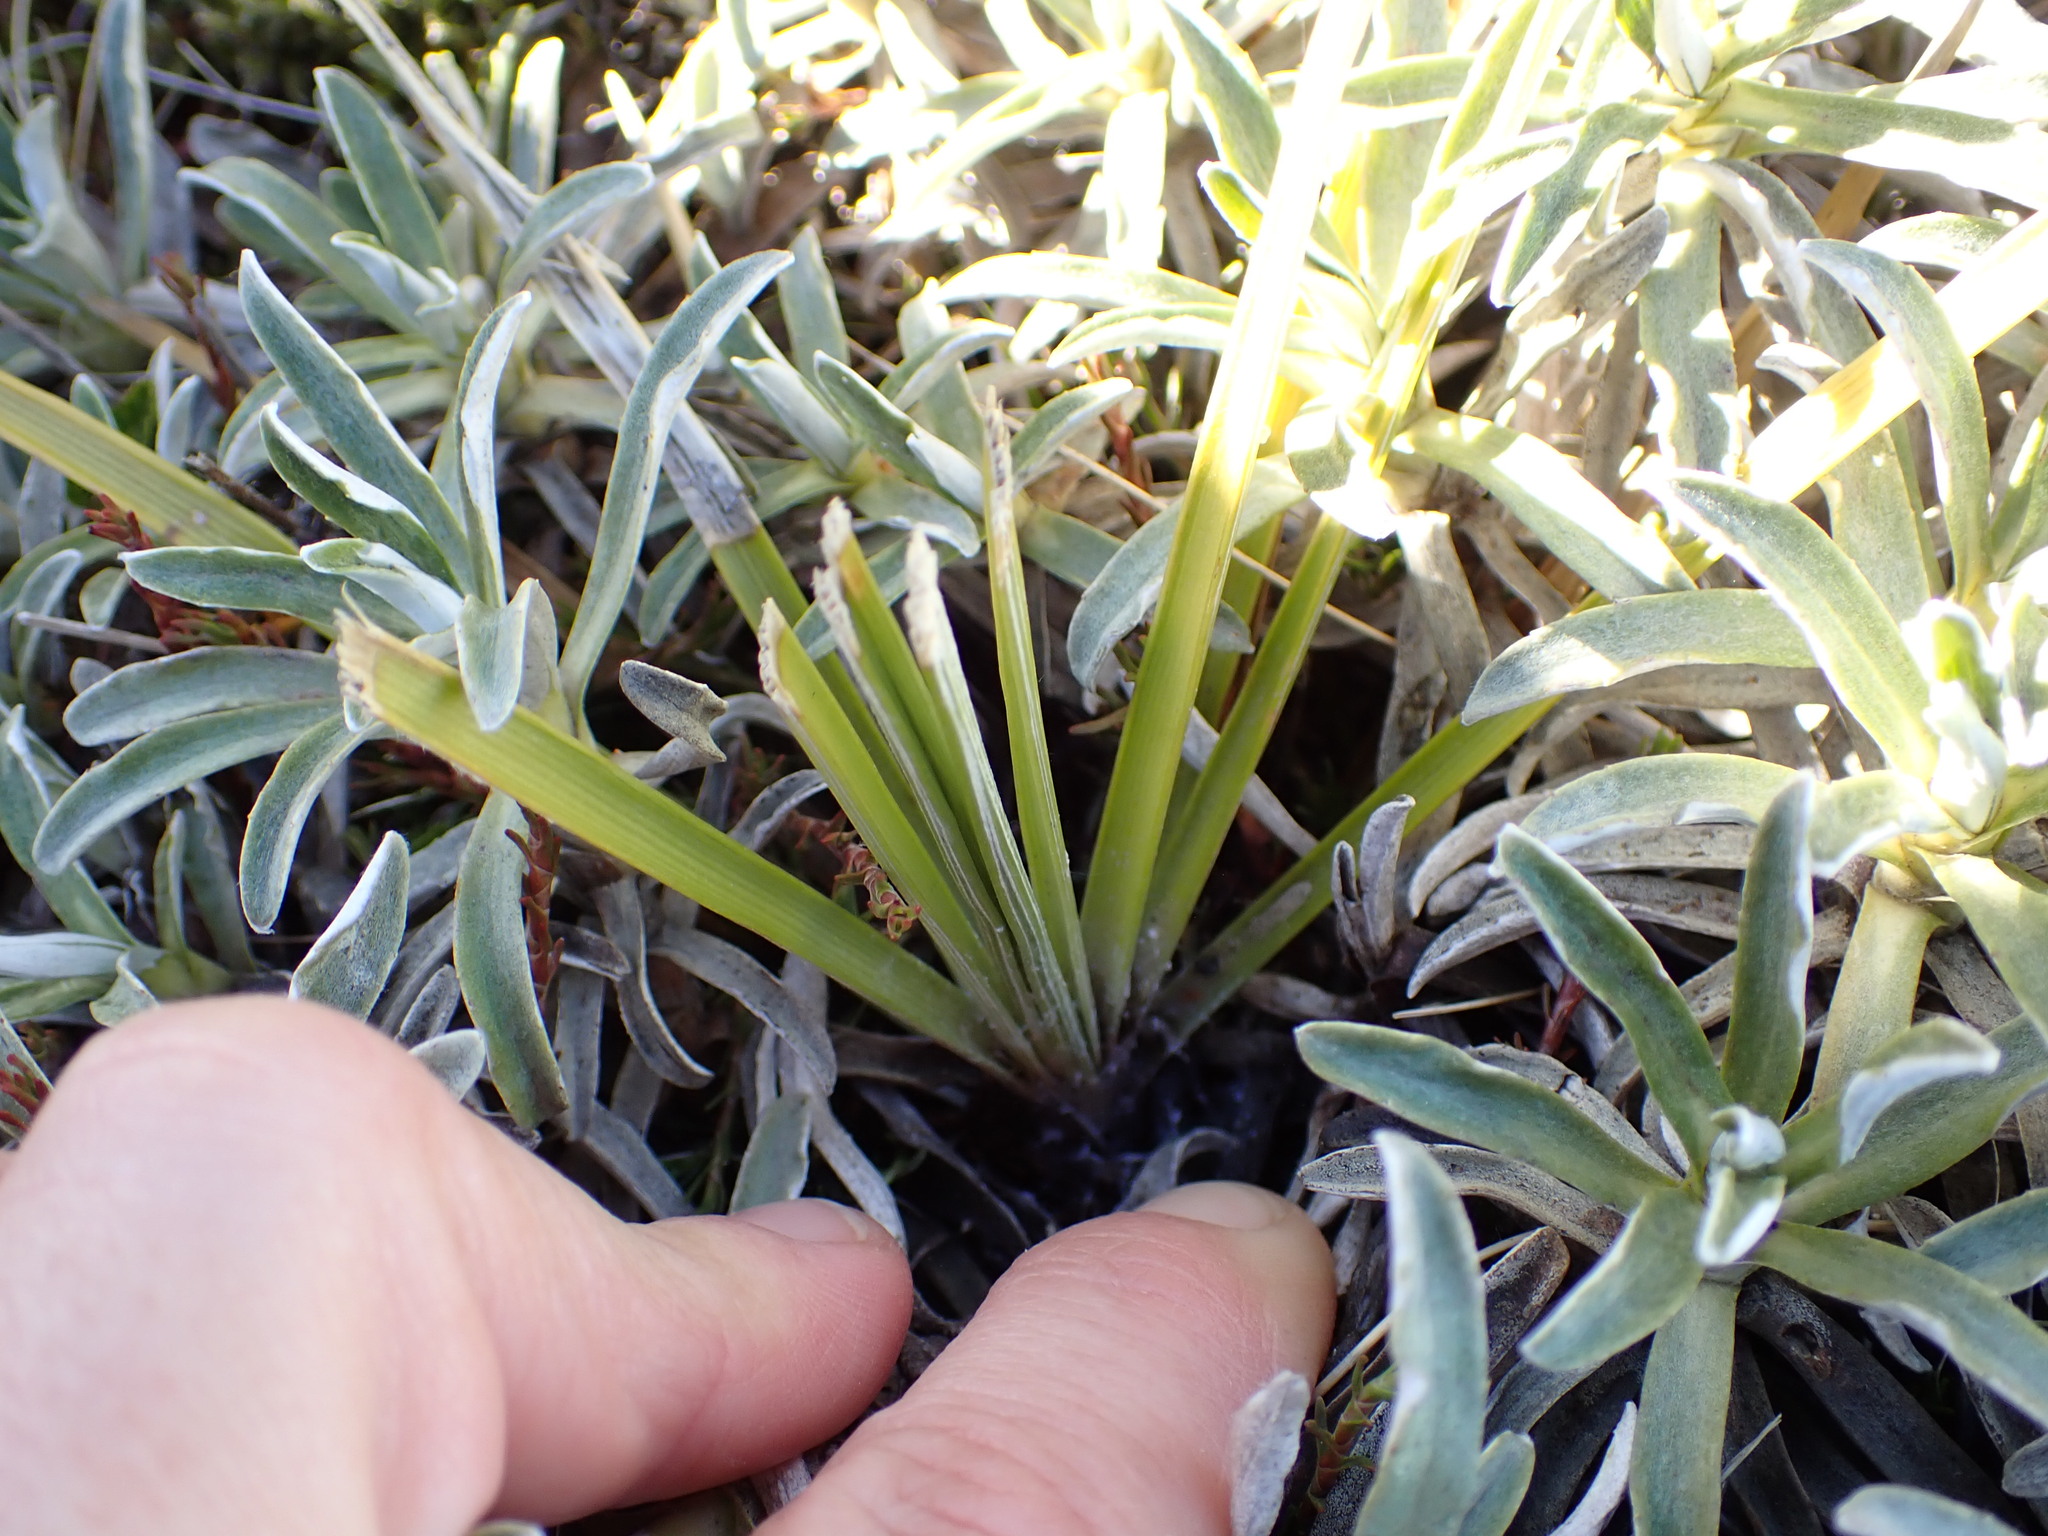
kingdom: Plantae
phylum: Tracheophyta
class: Magnoliopsida
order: Asterales
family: Asteraceae
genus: Celmisia
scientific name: Celmisia lyallii
